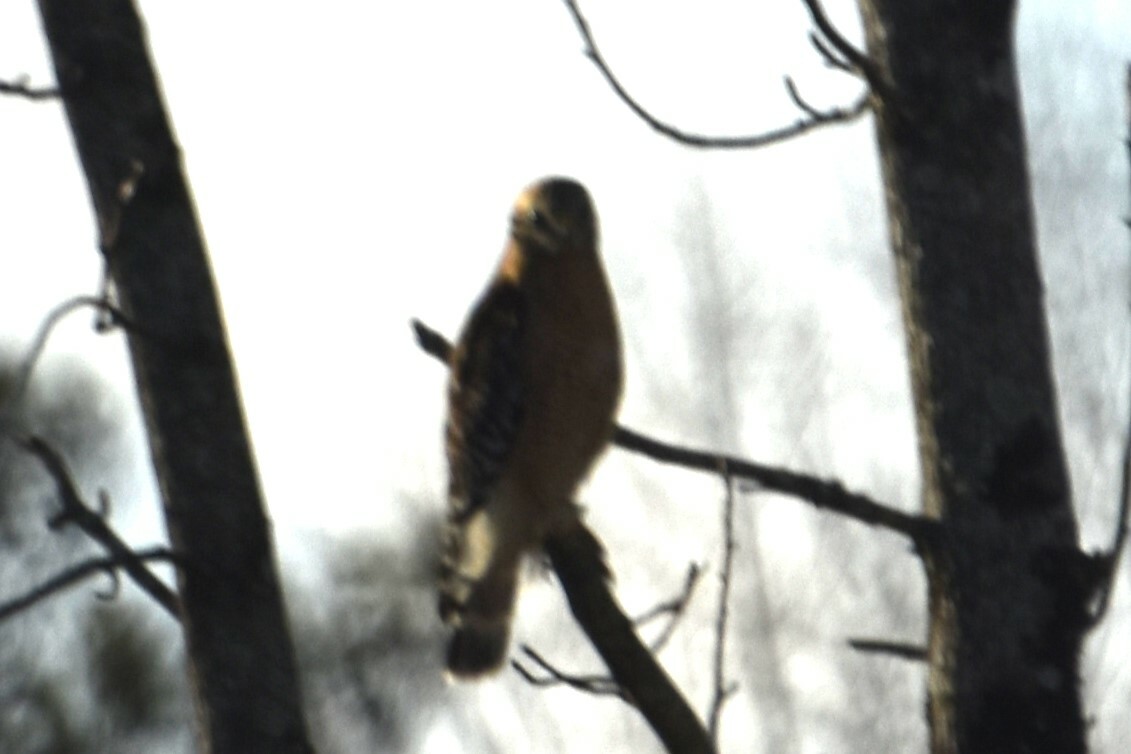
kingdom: Animalia
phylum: Chordata
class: Aves
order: Accipitriformes
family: Accipitridae
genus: Buteo
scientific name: Buteo lineatus
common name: Red-shouldered hawk
